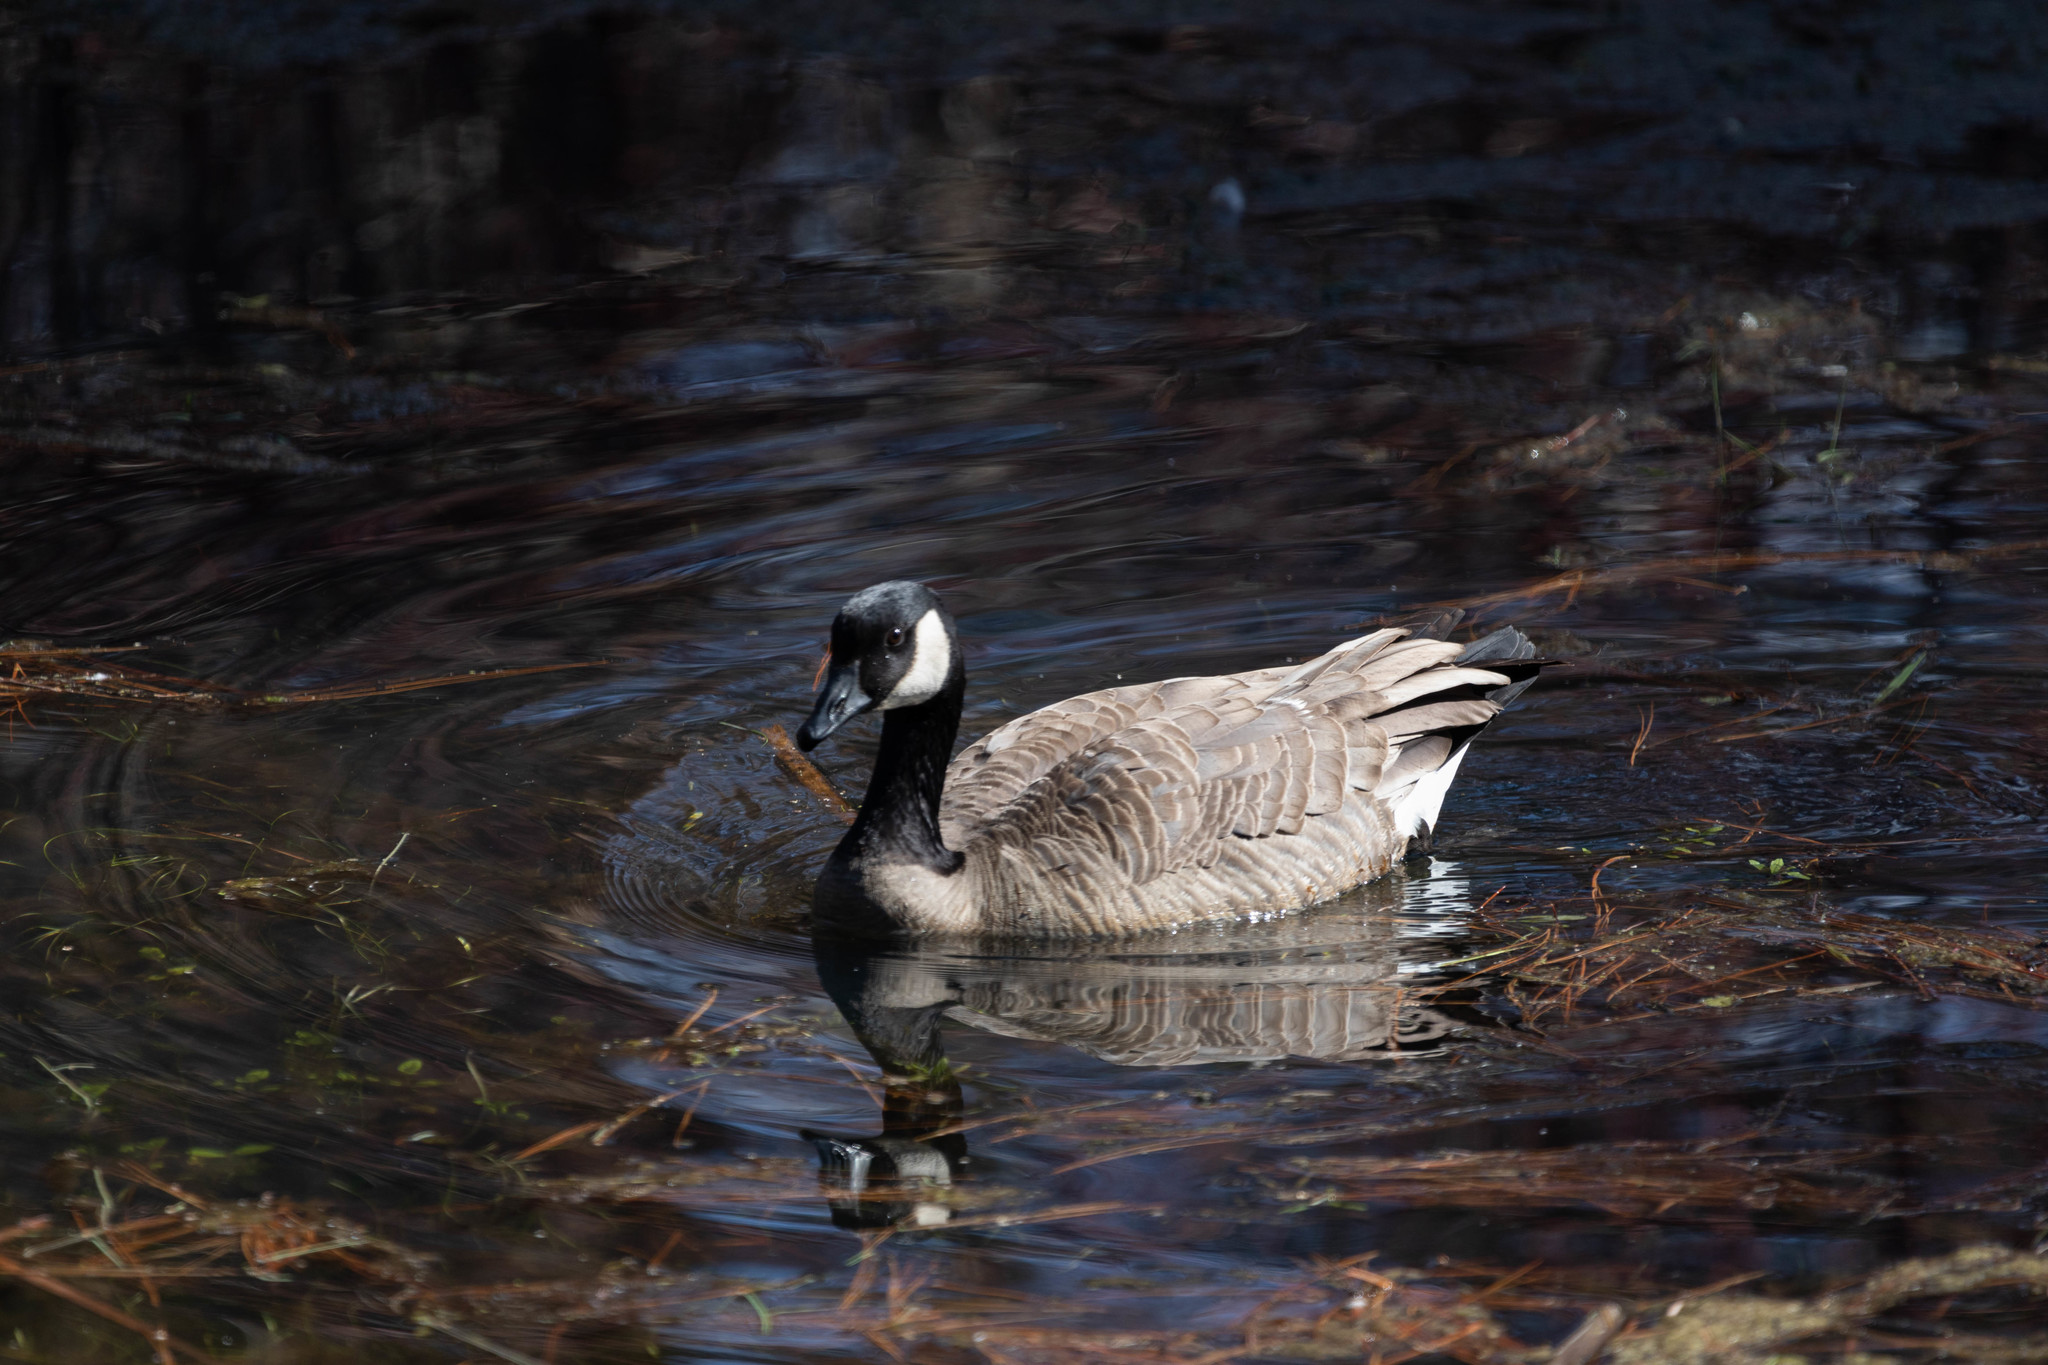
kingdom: Animalia
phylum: Chordata
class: Aves
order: Anseriformes
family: Anatidae
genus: Branta
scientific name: Branta canadensis
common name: Canada goose
